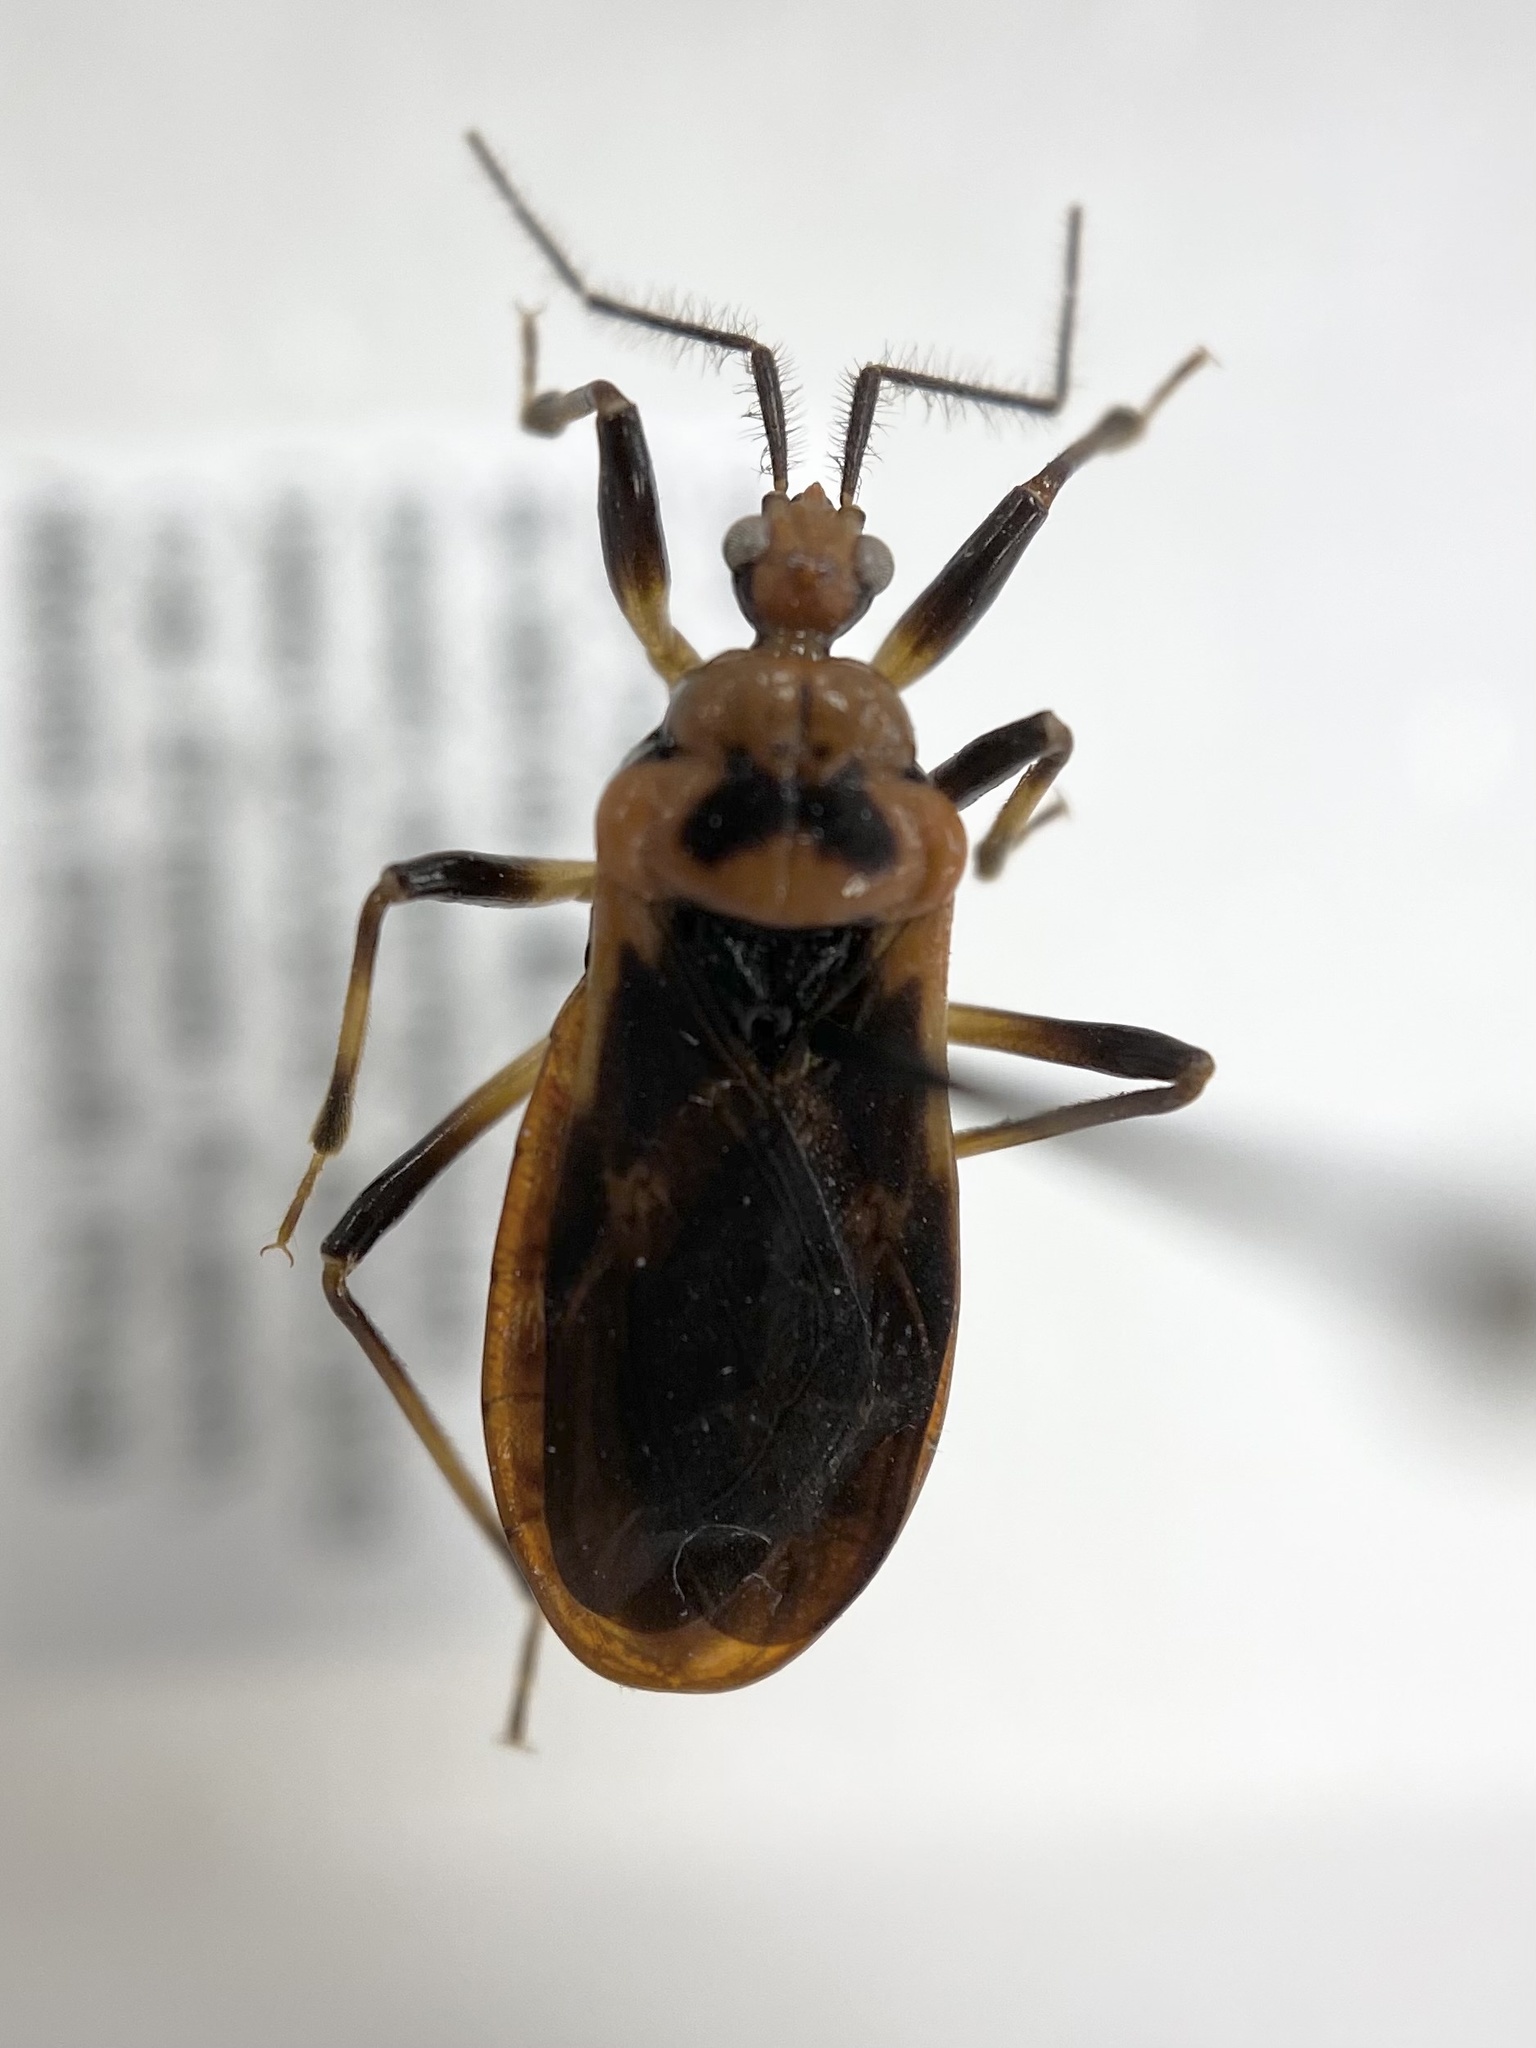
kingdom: Animalia
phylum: Arthropoda
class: Insecta
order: Hemiptera
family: Reduviidae
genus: Rhiginia
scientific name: Rhiginia cruciata
